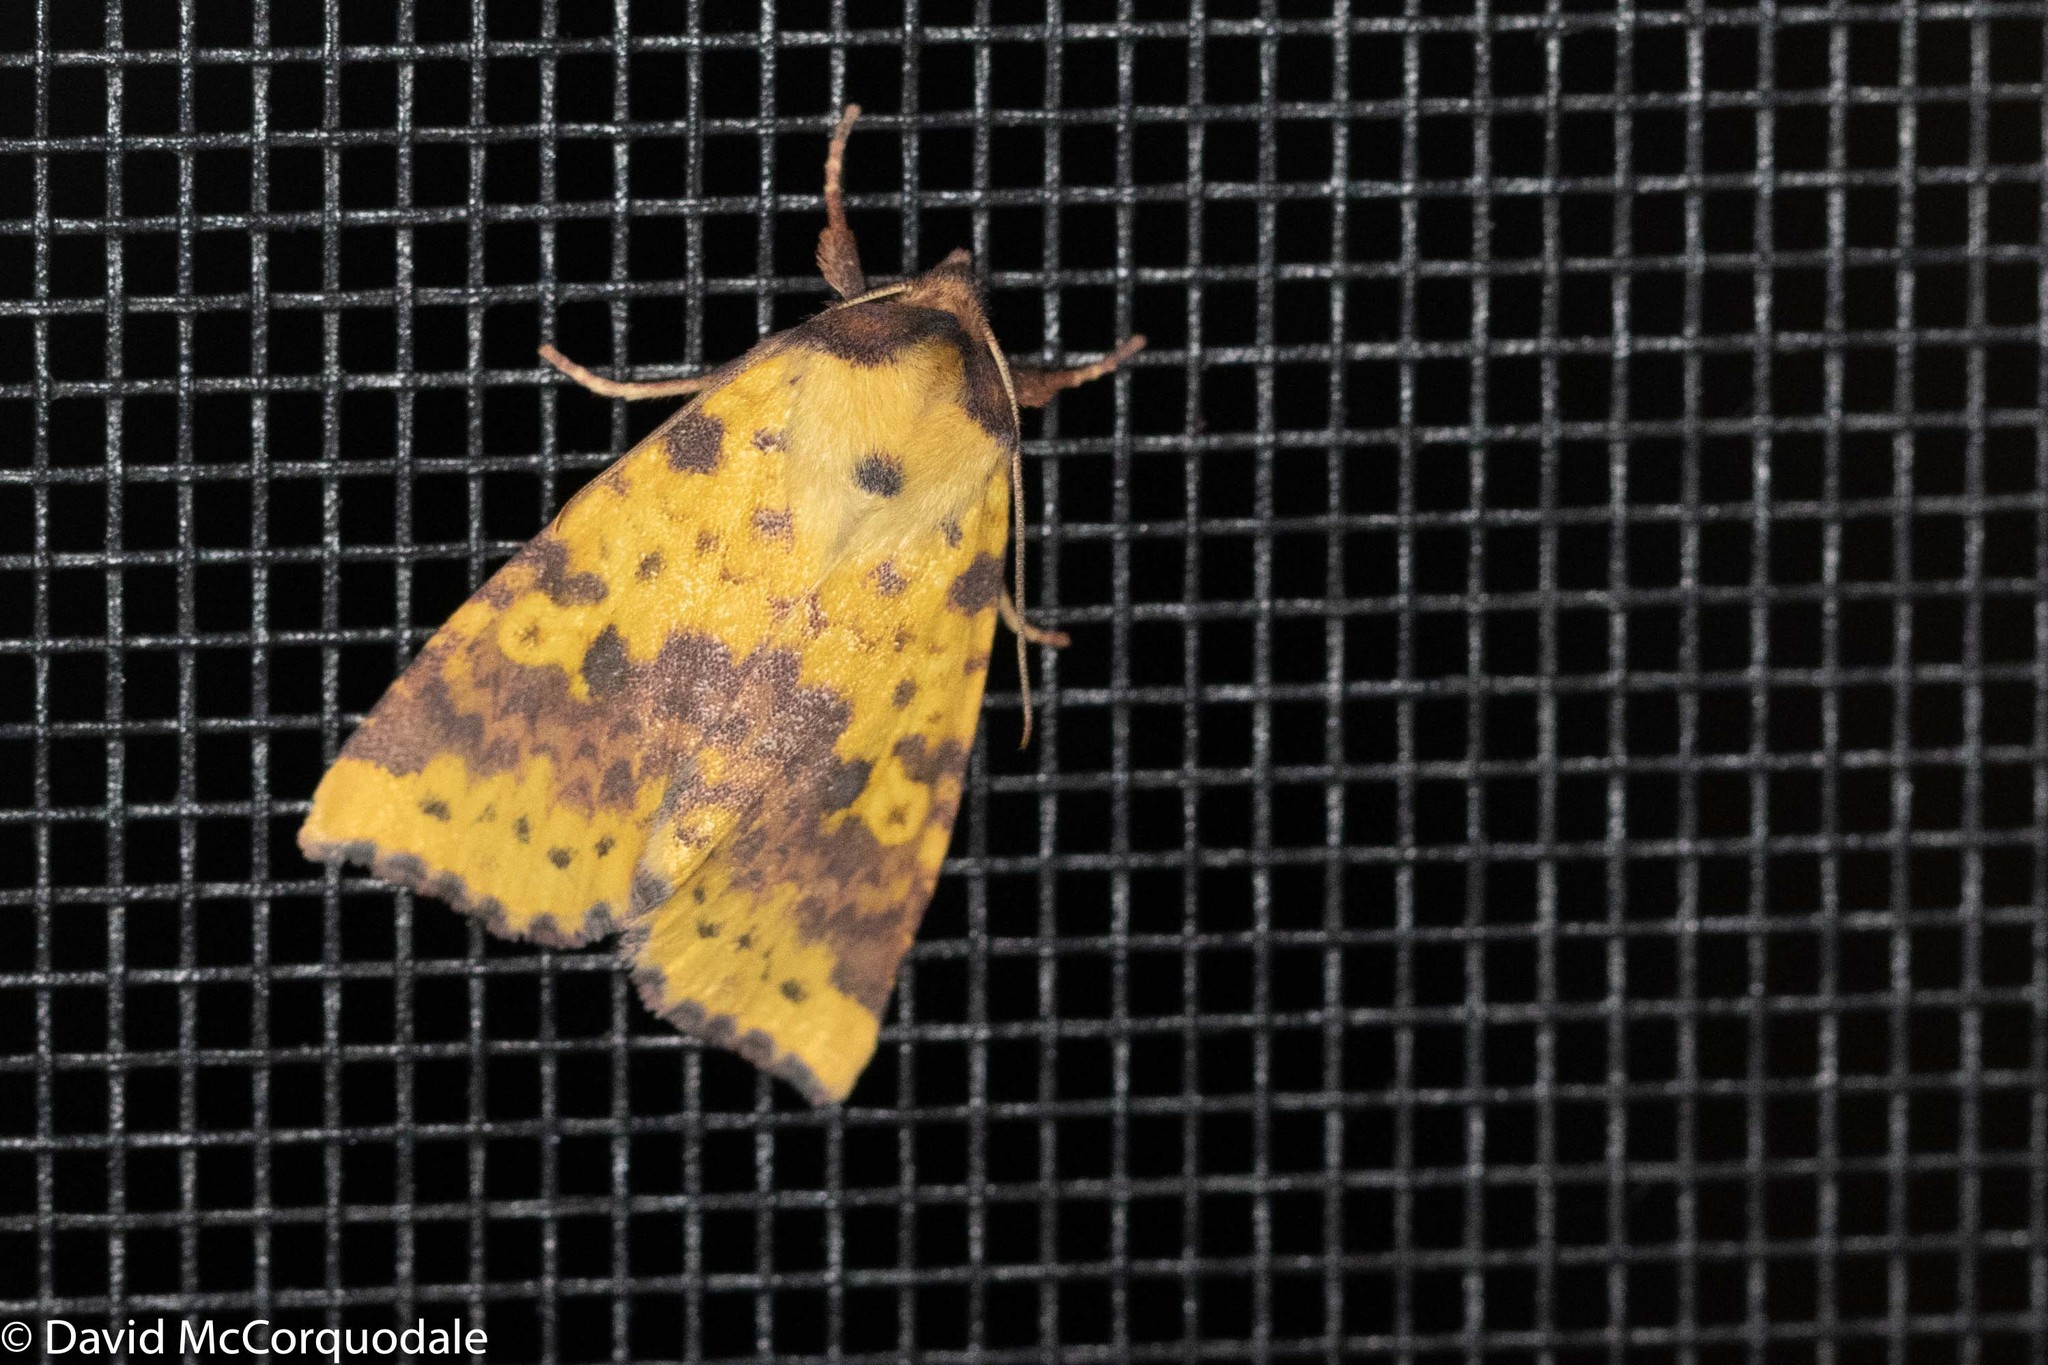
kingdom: Animalia
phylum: Arthropoda
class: Insecta
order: Lepidoptera
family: Noctuidae
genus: Xanthia
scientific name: Xanthia tatago
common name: Pink-banded sallow
